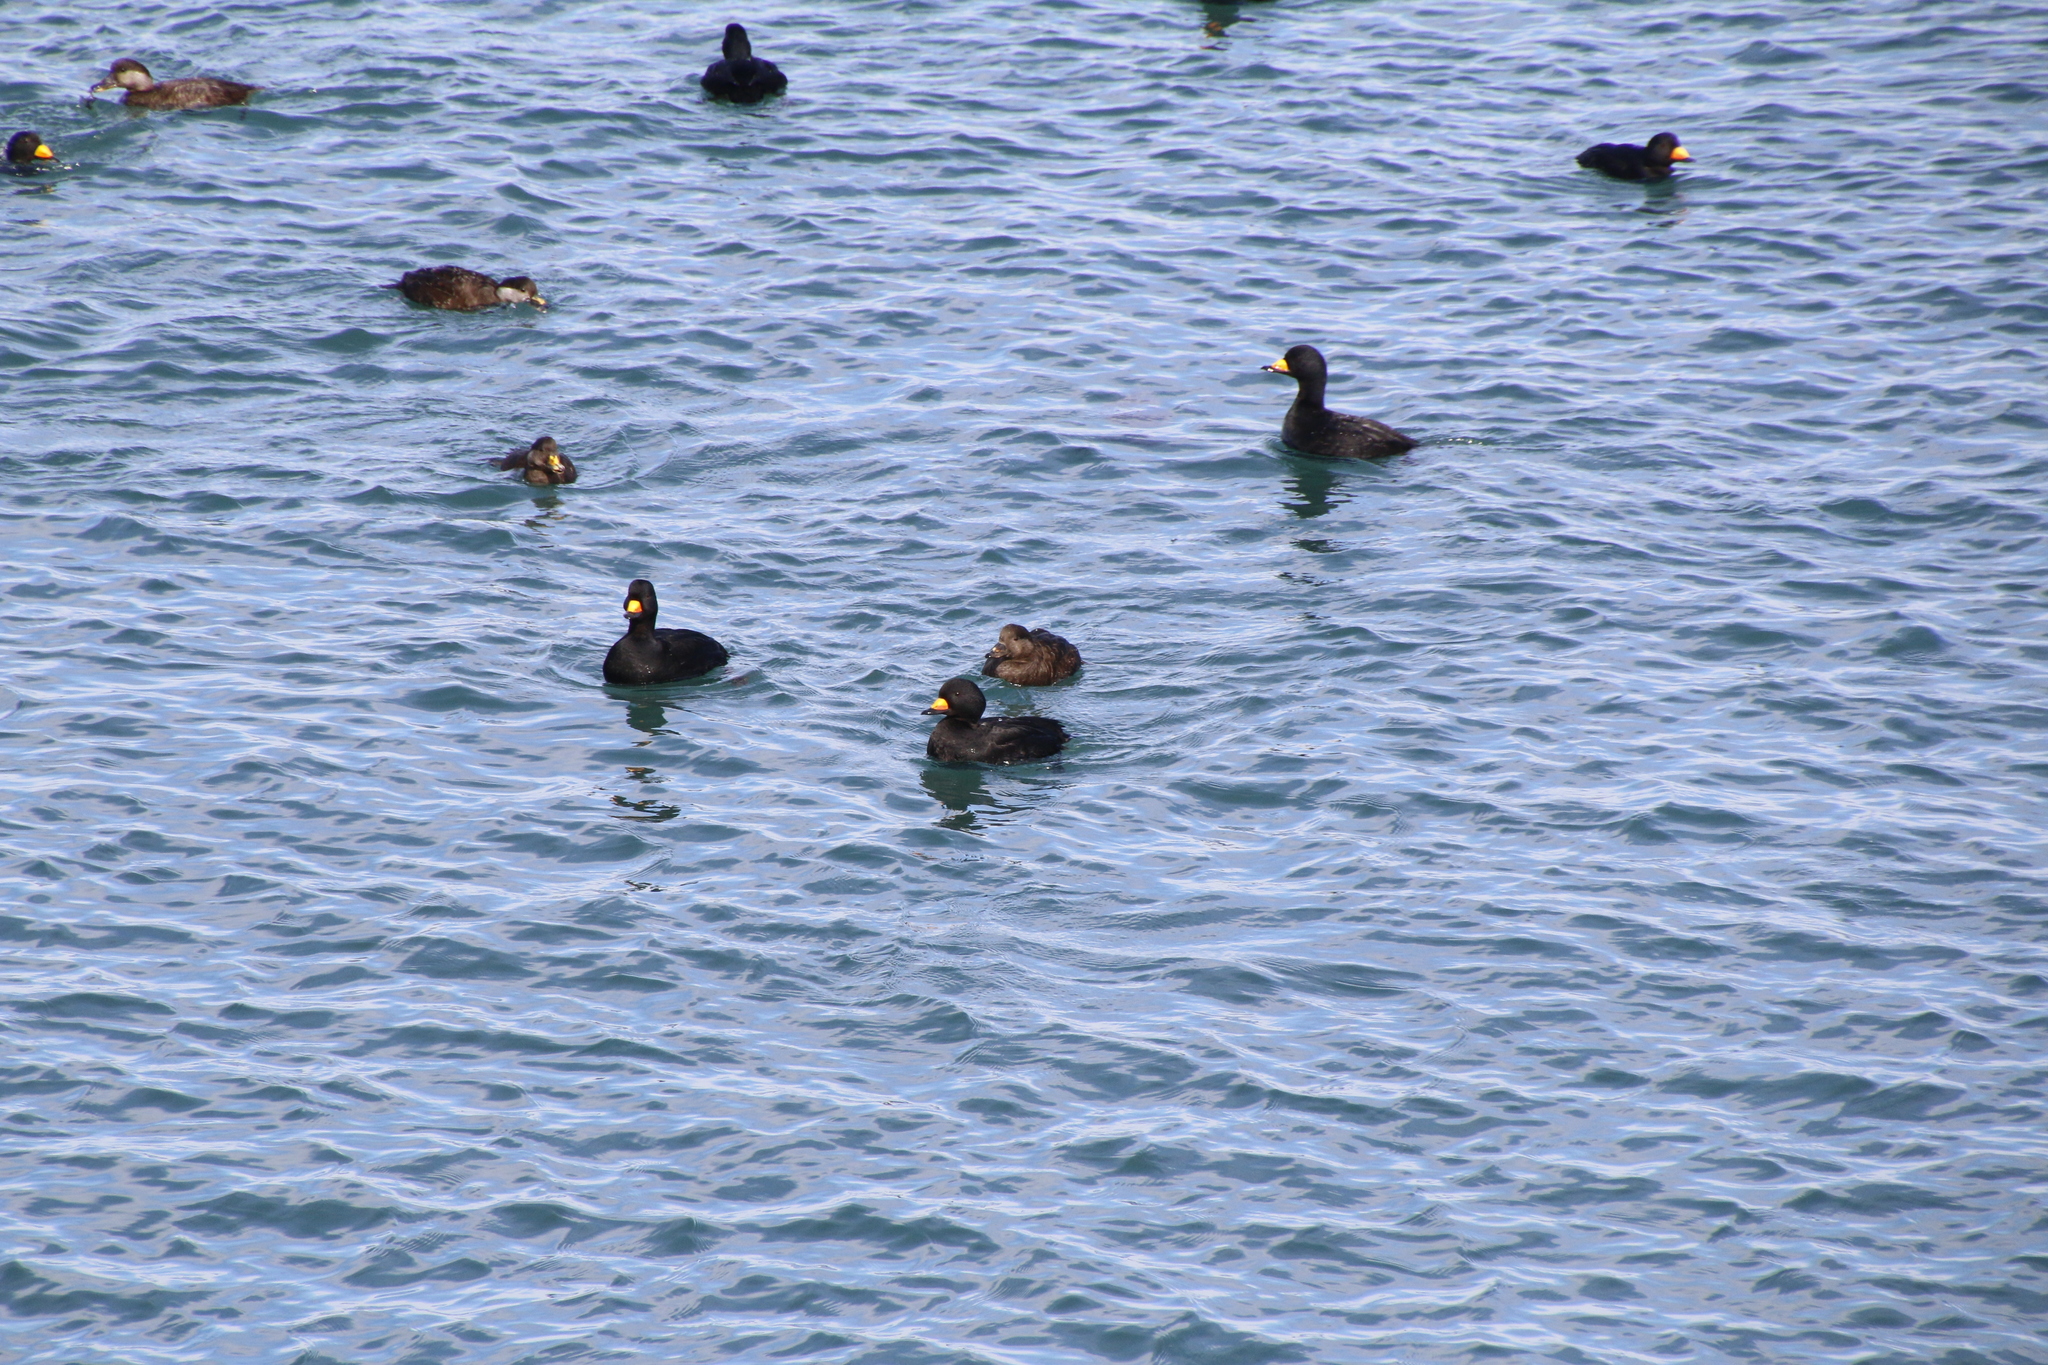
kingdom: Animalia
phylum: Chordata
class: Aves
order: Anseriformes
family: Anatidae
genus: Melanitta
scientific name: Melanitta americana
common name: Black scoter
